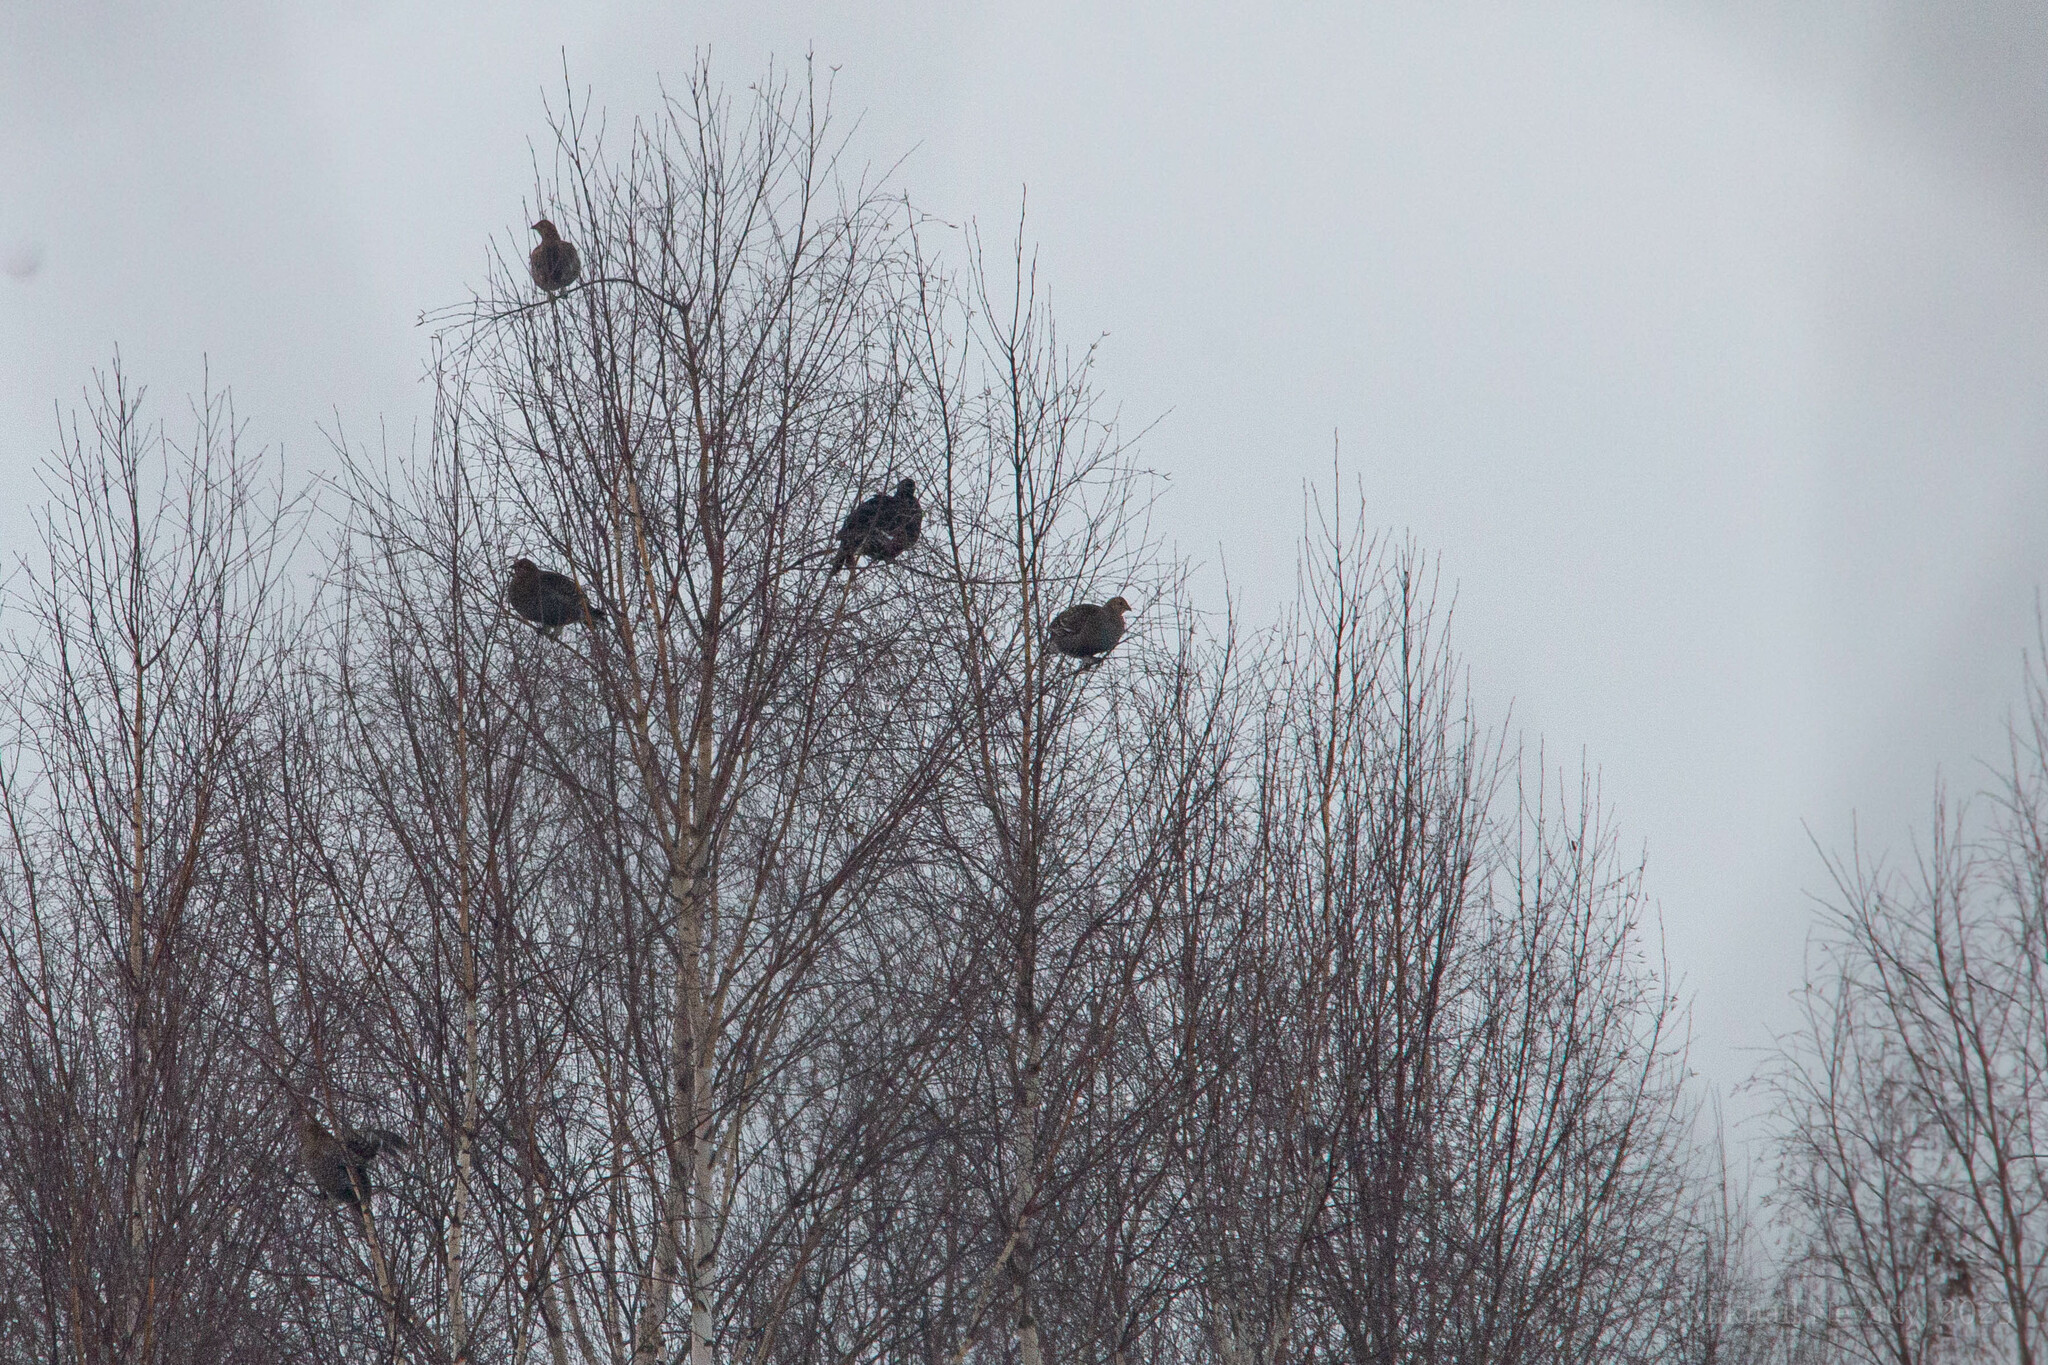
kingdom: Animalia
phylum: Chordata
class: Aves
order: Galliformes
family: Phasianidae
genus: Lyrurus
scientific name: Lyrurus tetrix
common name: Black grouse
